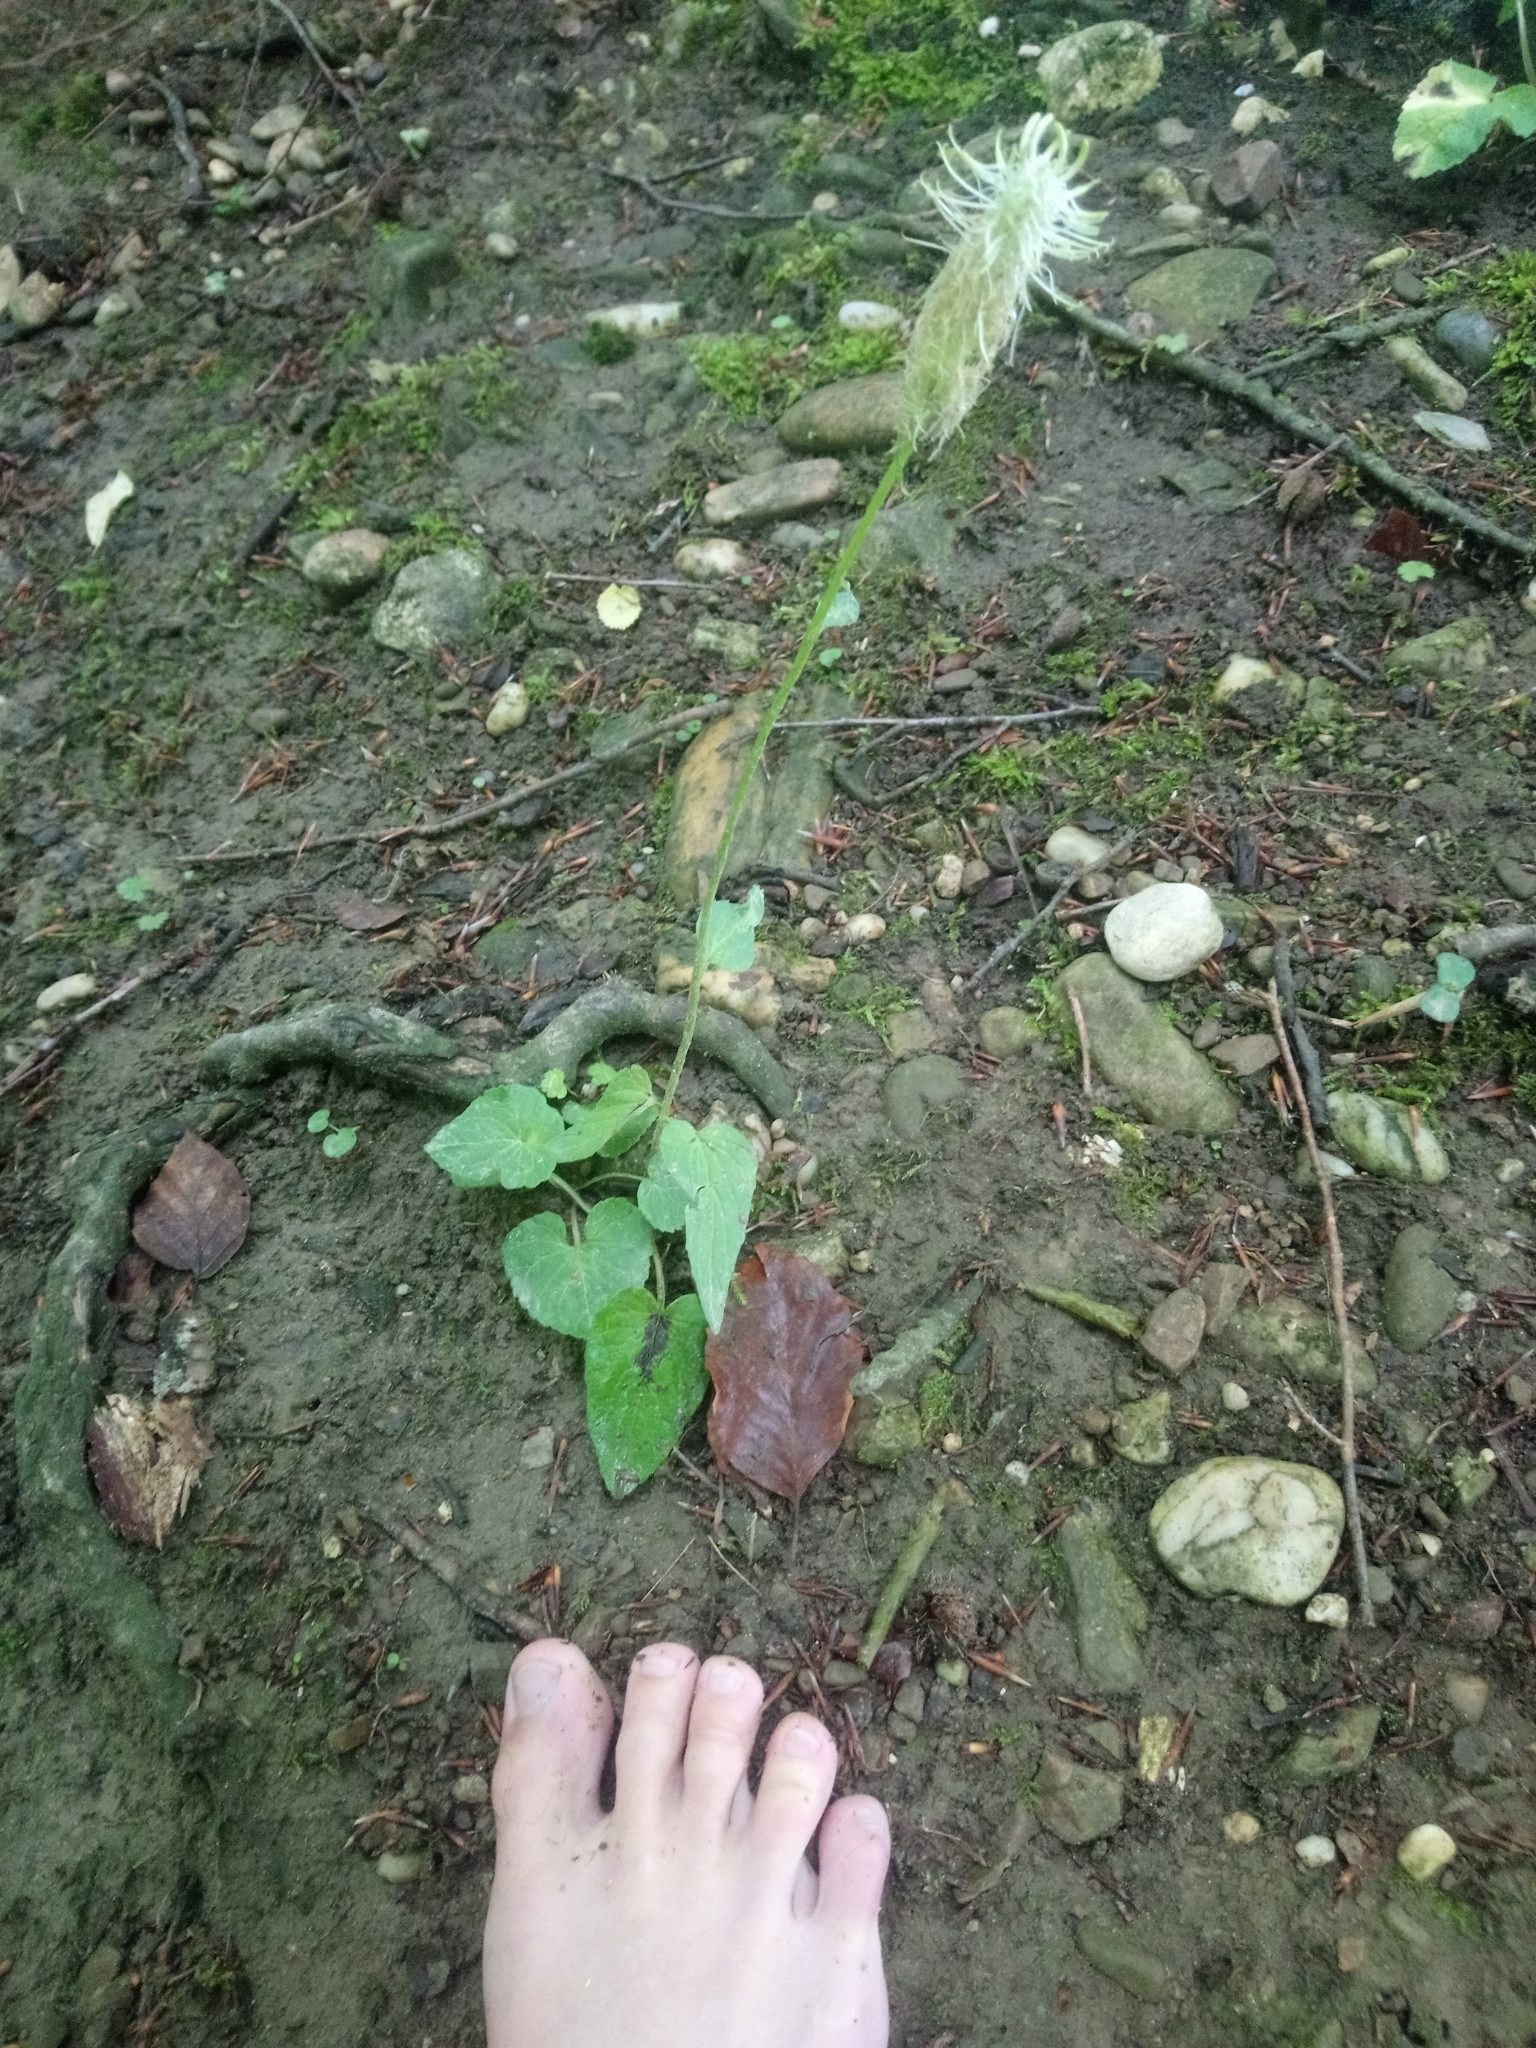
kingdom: Plantae
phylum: Tracheophyta
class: Magnoliopsida
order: Asterales
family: Campanulaceae
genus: Phyteuma
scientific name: Phyteuma spicatum
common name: Spiked rampion
